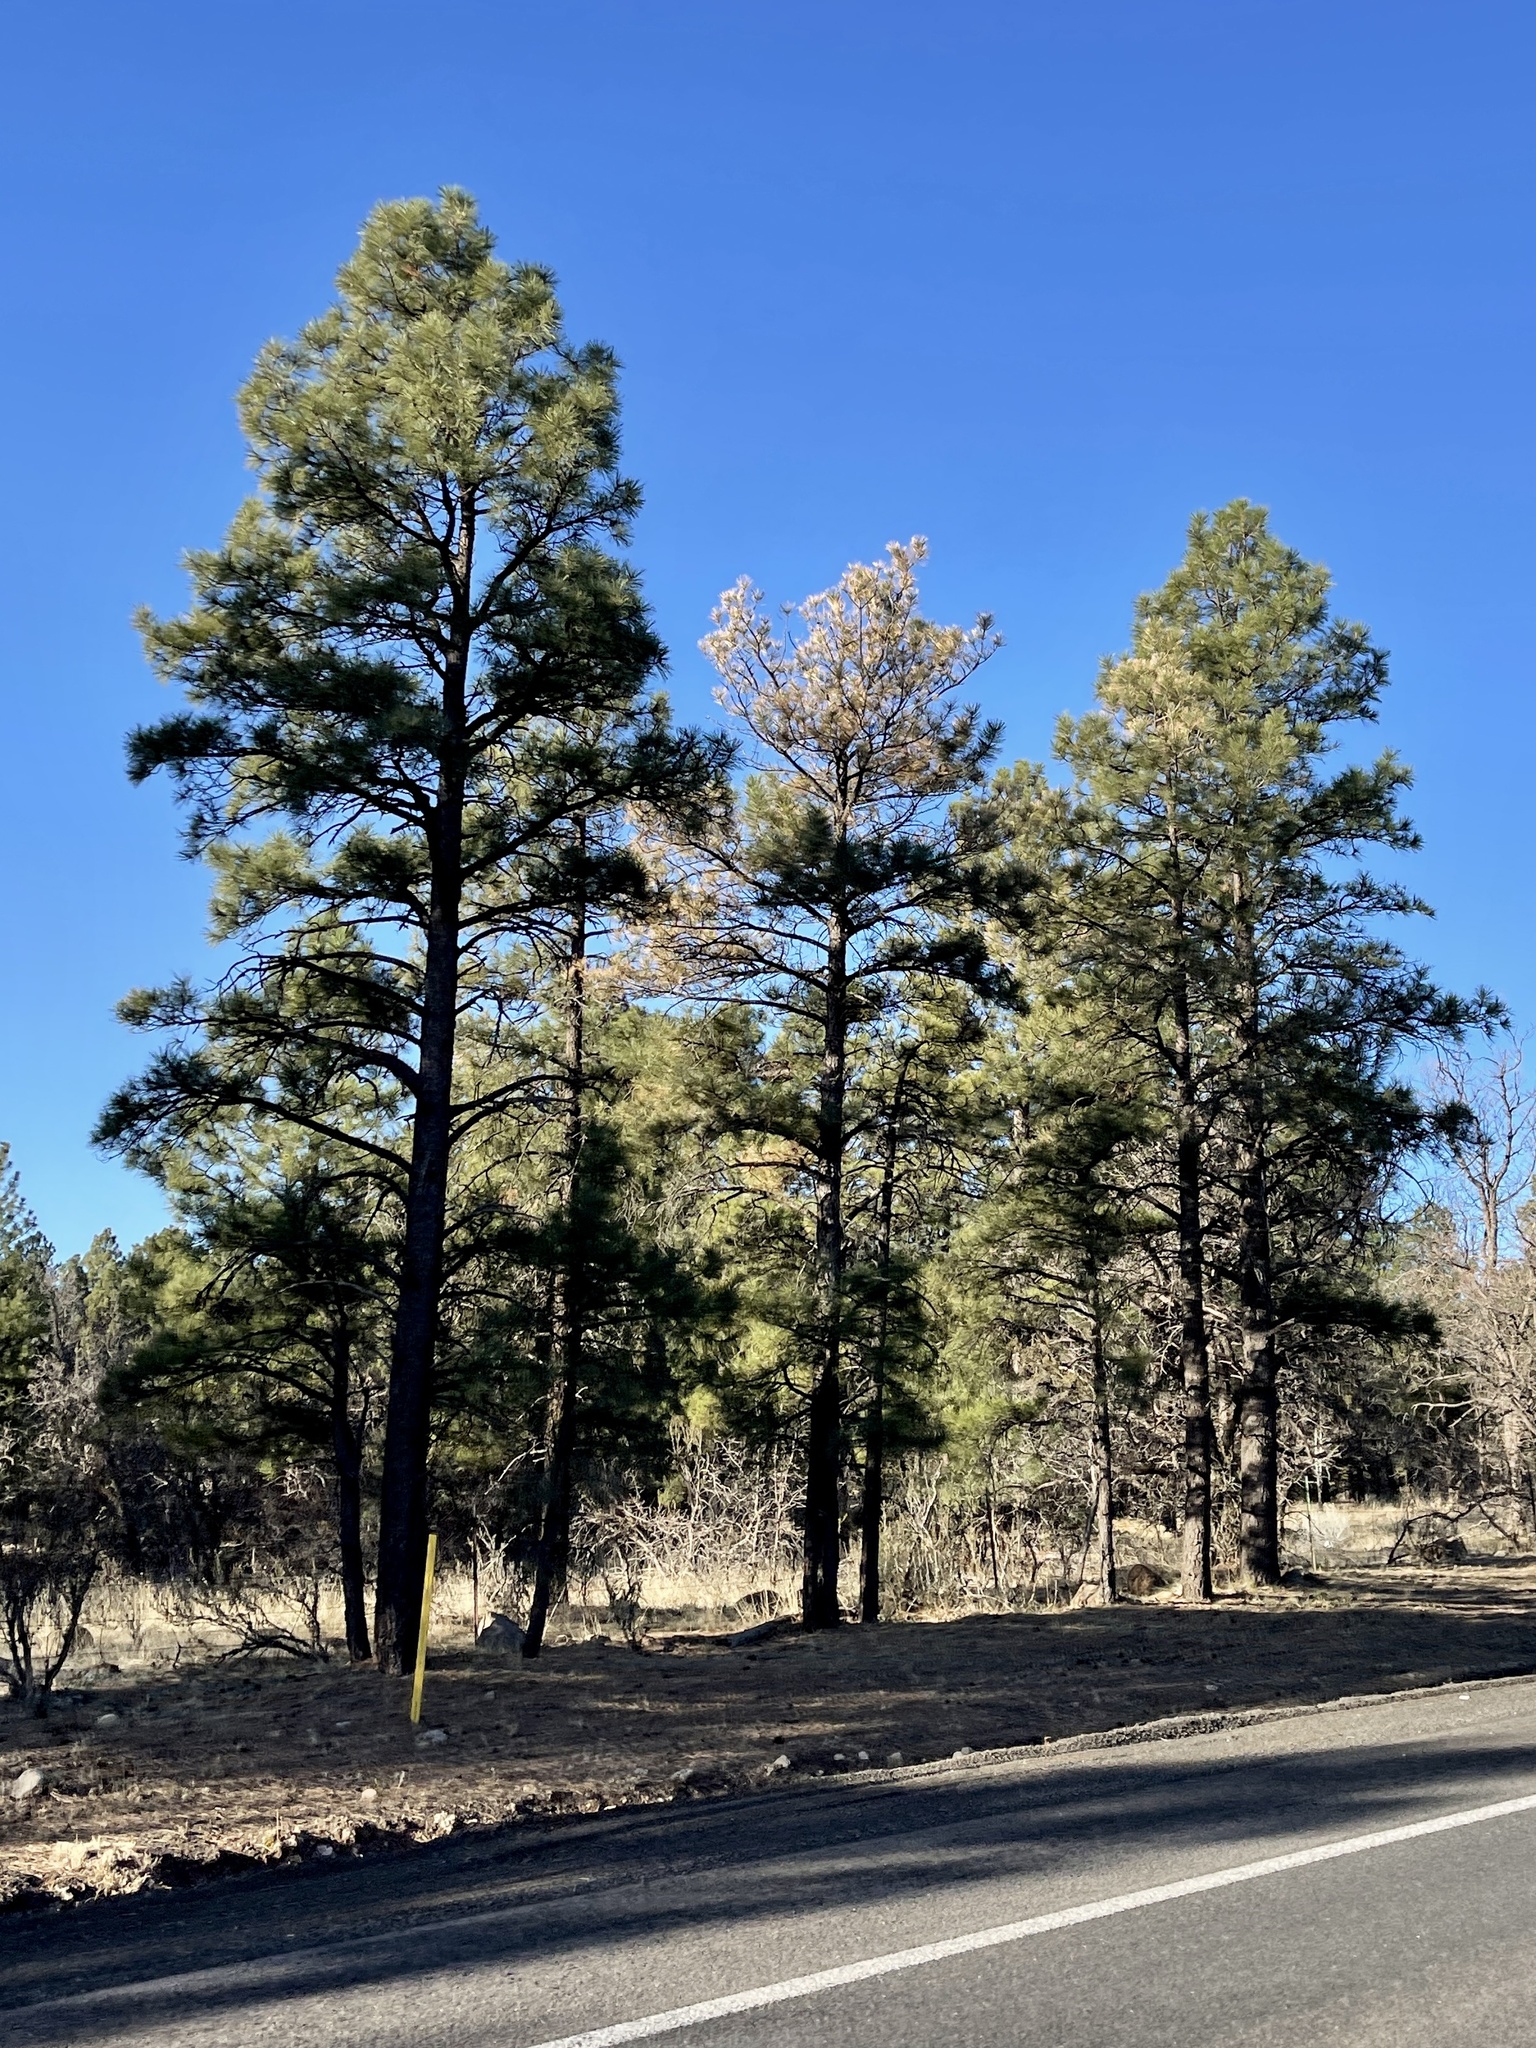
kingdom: Plantae
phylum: Tracheophyta
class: Pinopsida
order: Pinales
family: Pinaceae
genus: Pinus
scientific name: Pinus ponderosa
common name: Western yellow-pine
